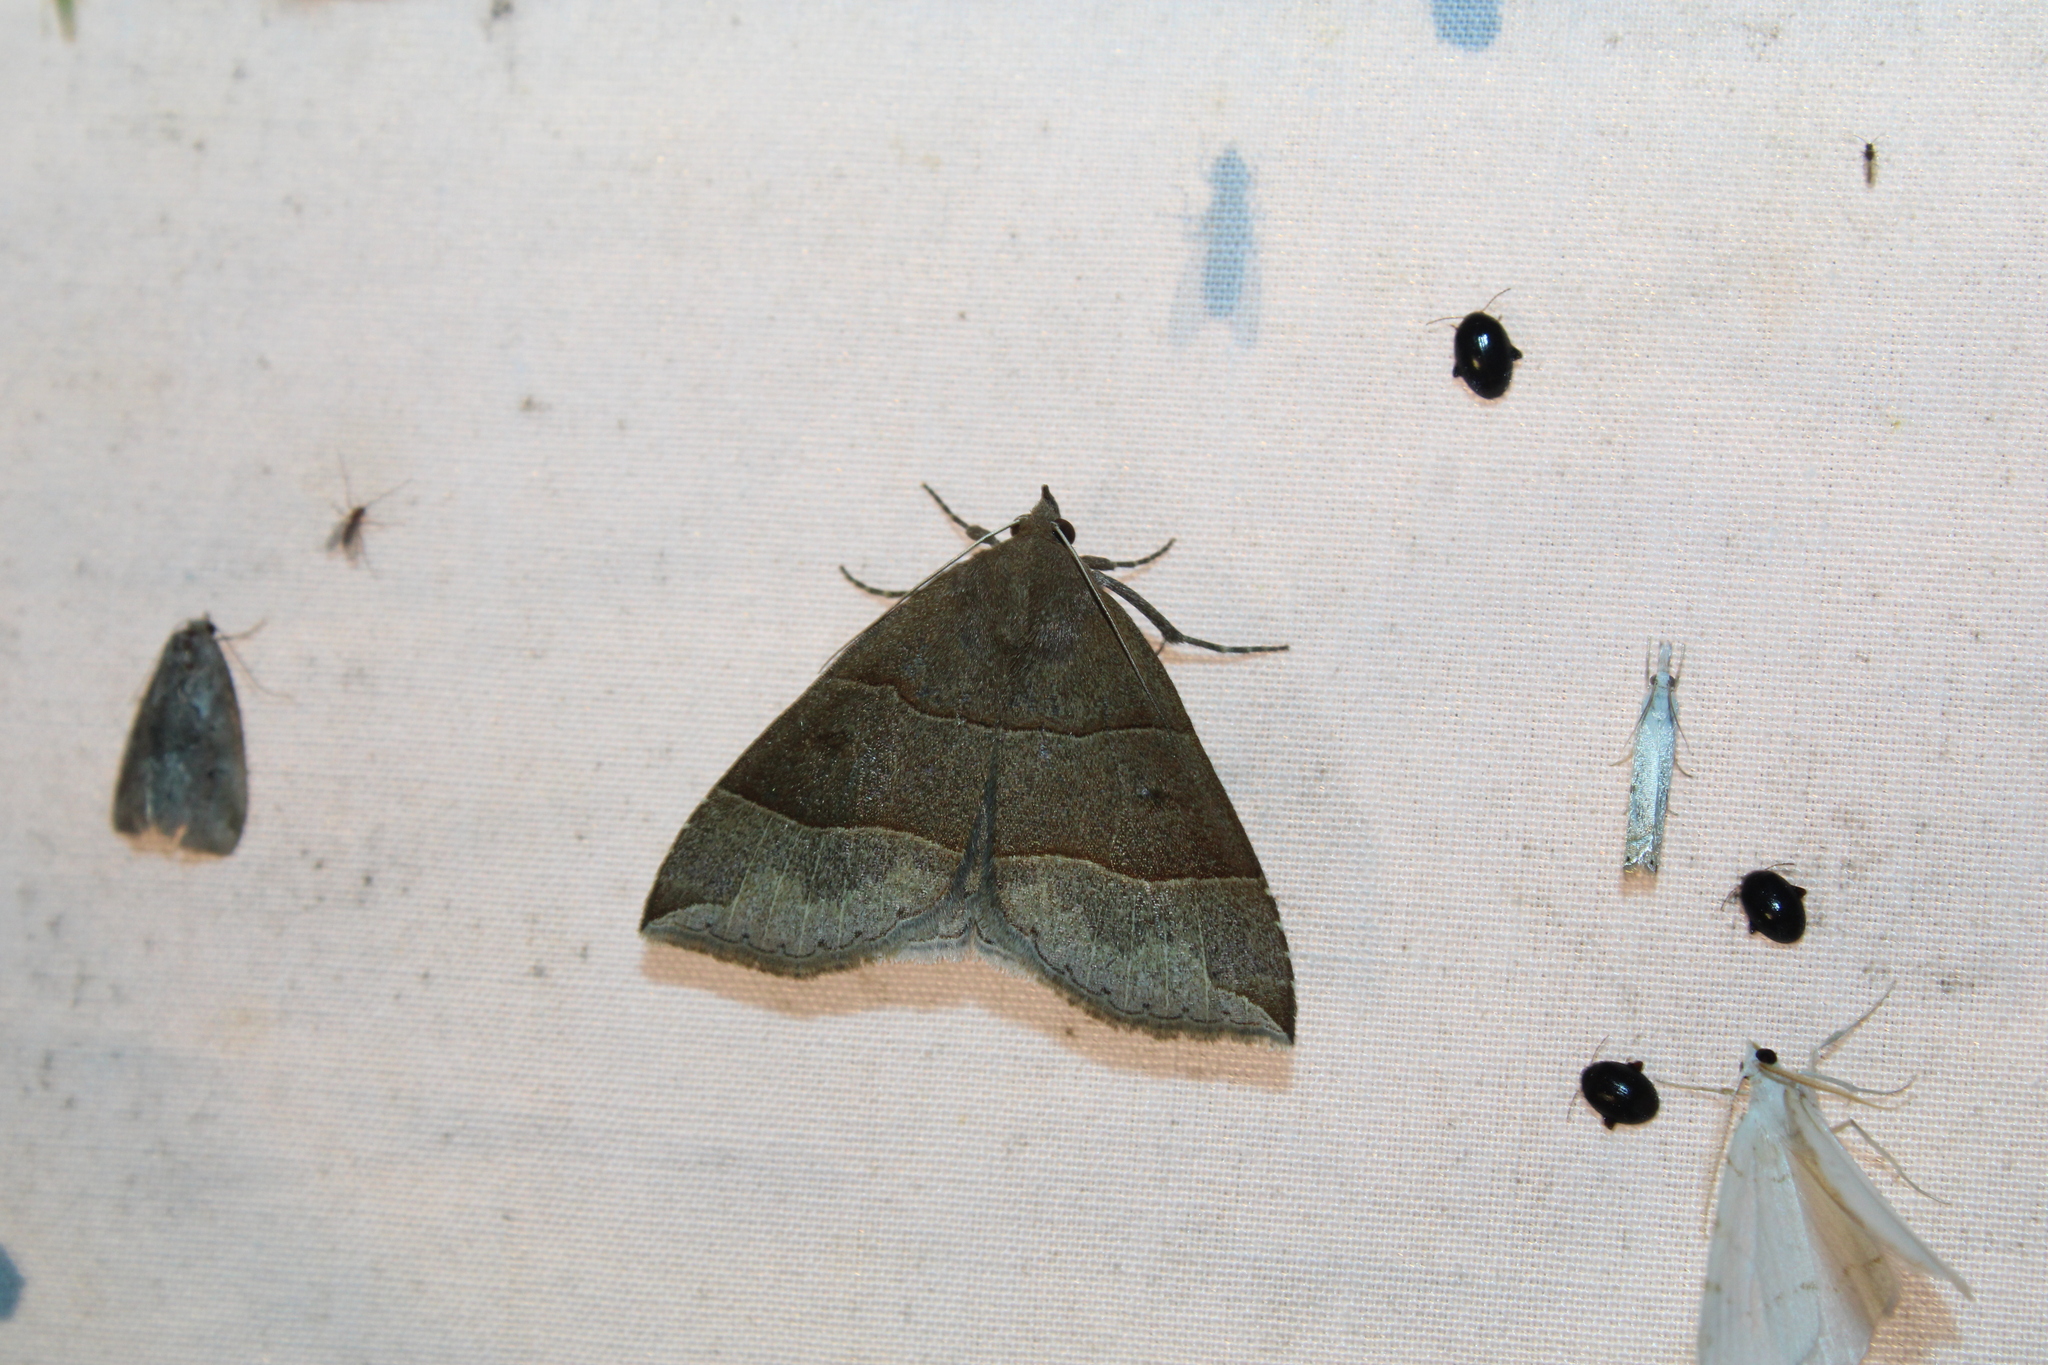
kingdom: Animalia
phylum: Arthropoda
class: Insecta
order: Lepidoptera
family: Erebidae
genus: Parallelia
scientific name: Parallelia bistriaris
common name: Maple looper moth
